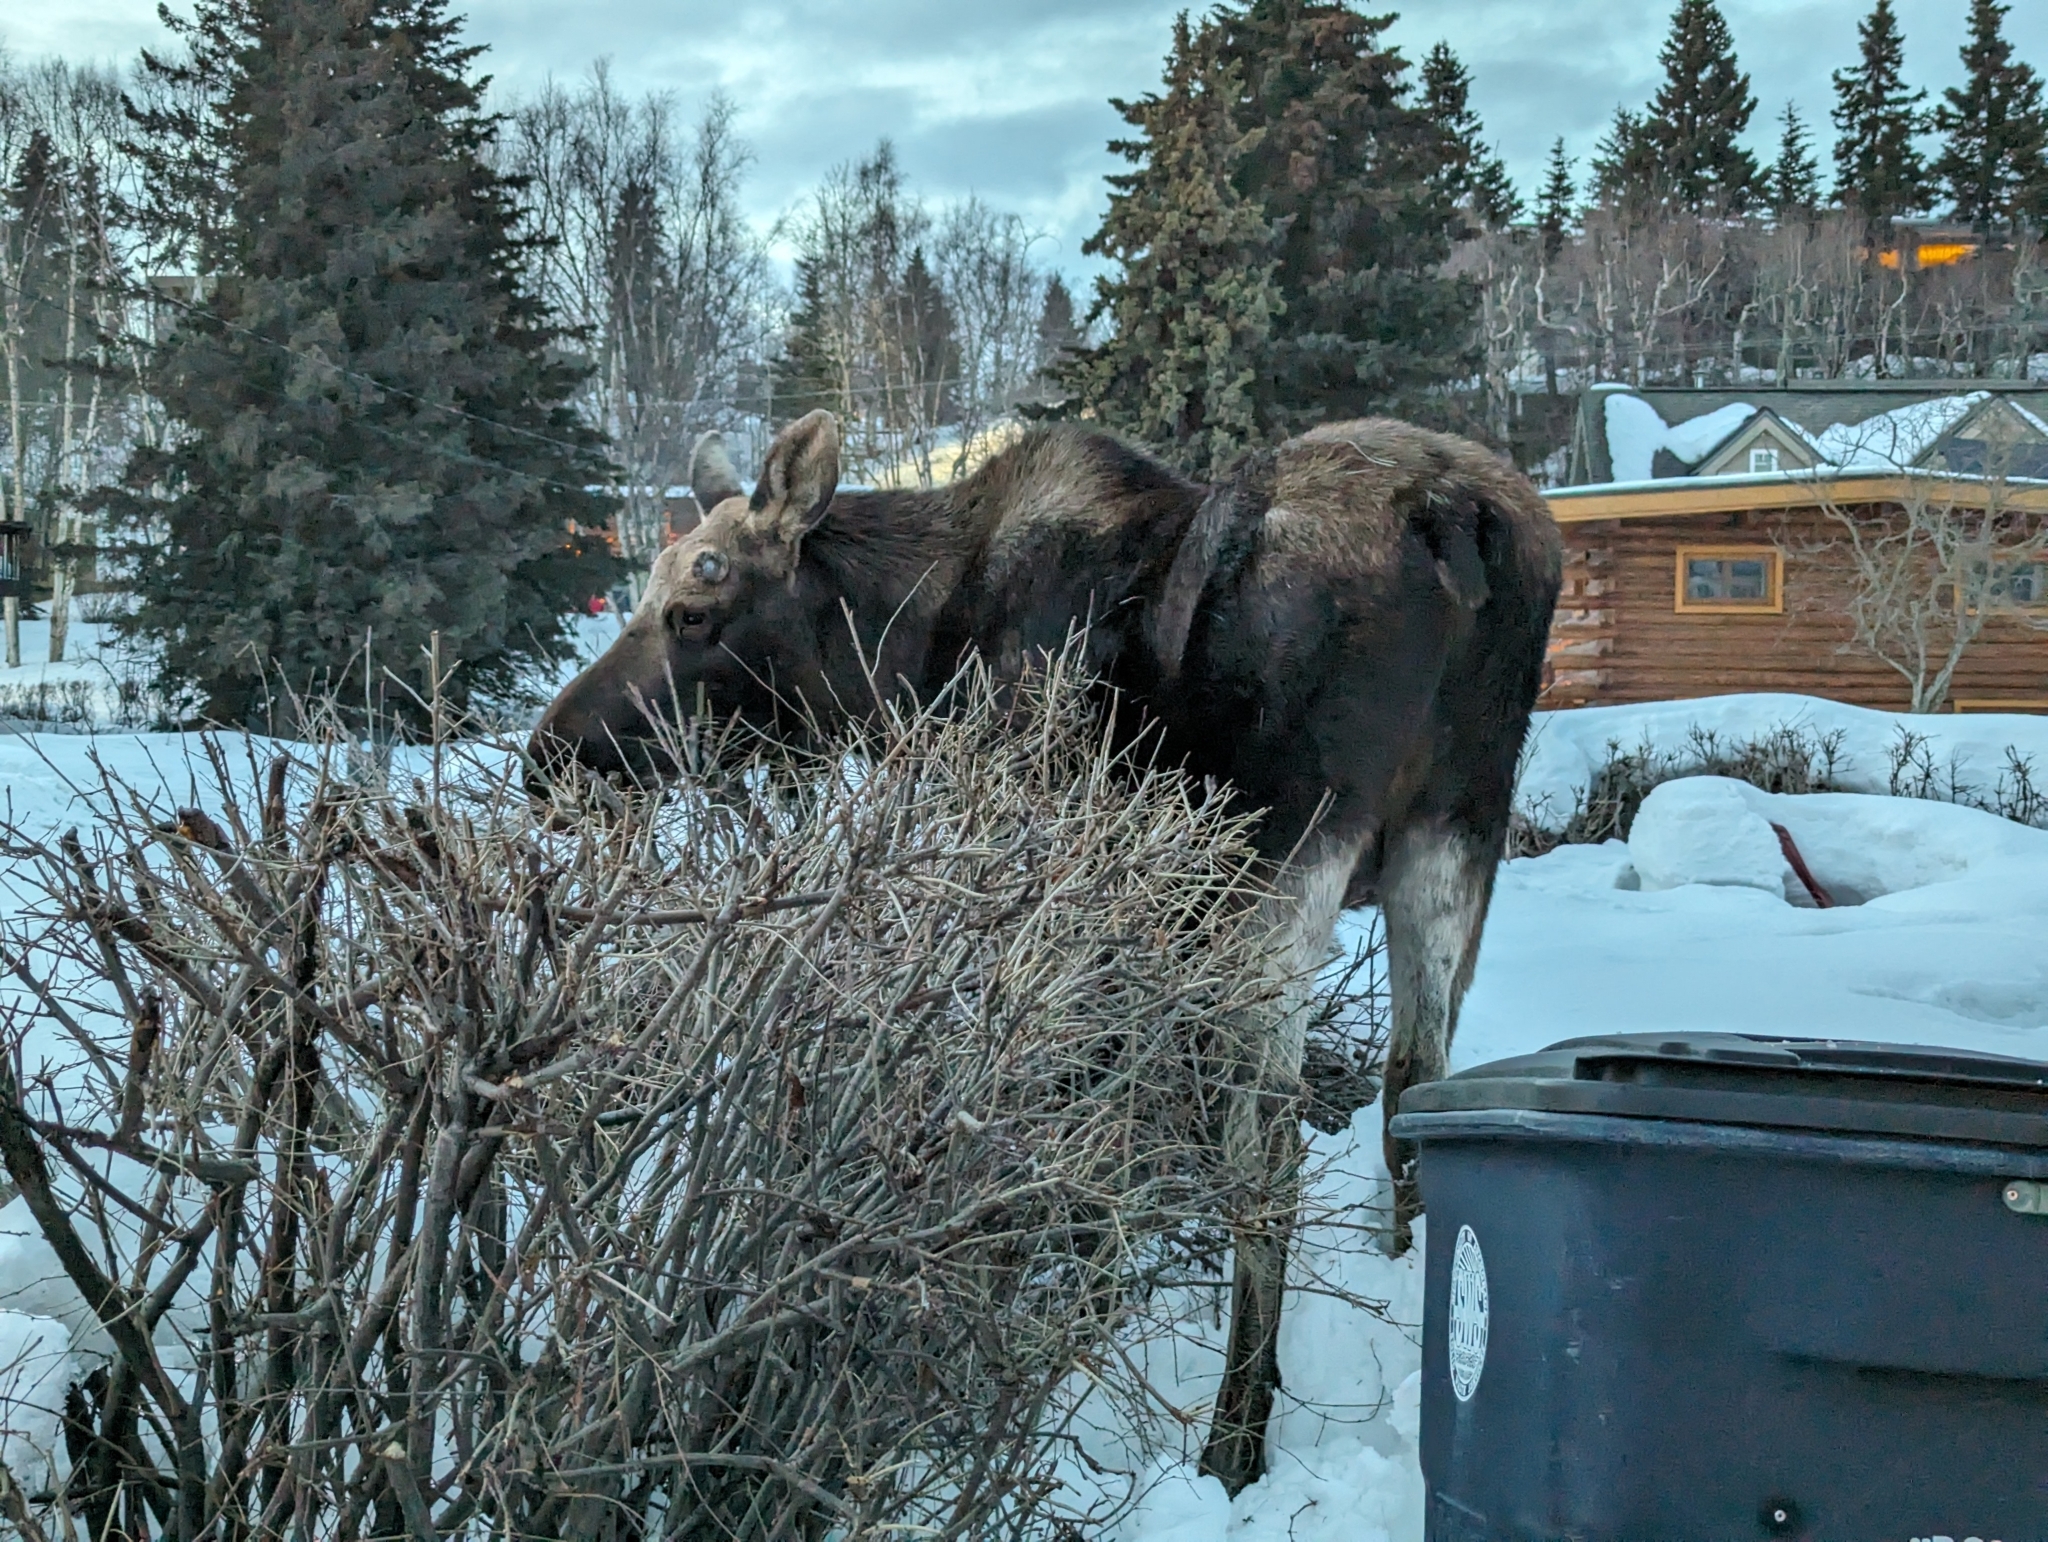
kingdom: Animalia
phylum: Chordata
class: Mammalia
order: Artiodactyla
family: Cervidae
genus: Alces
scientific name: Alces alces
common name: Moose
